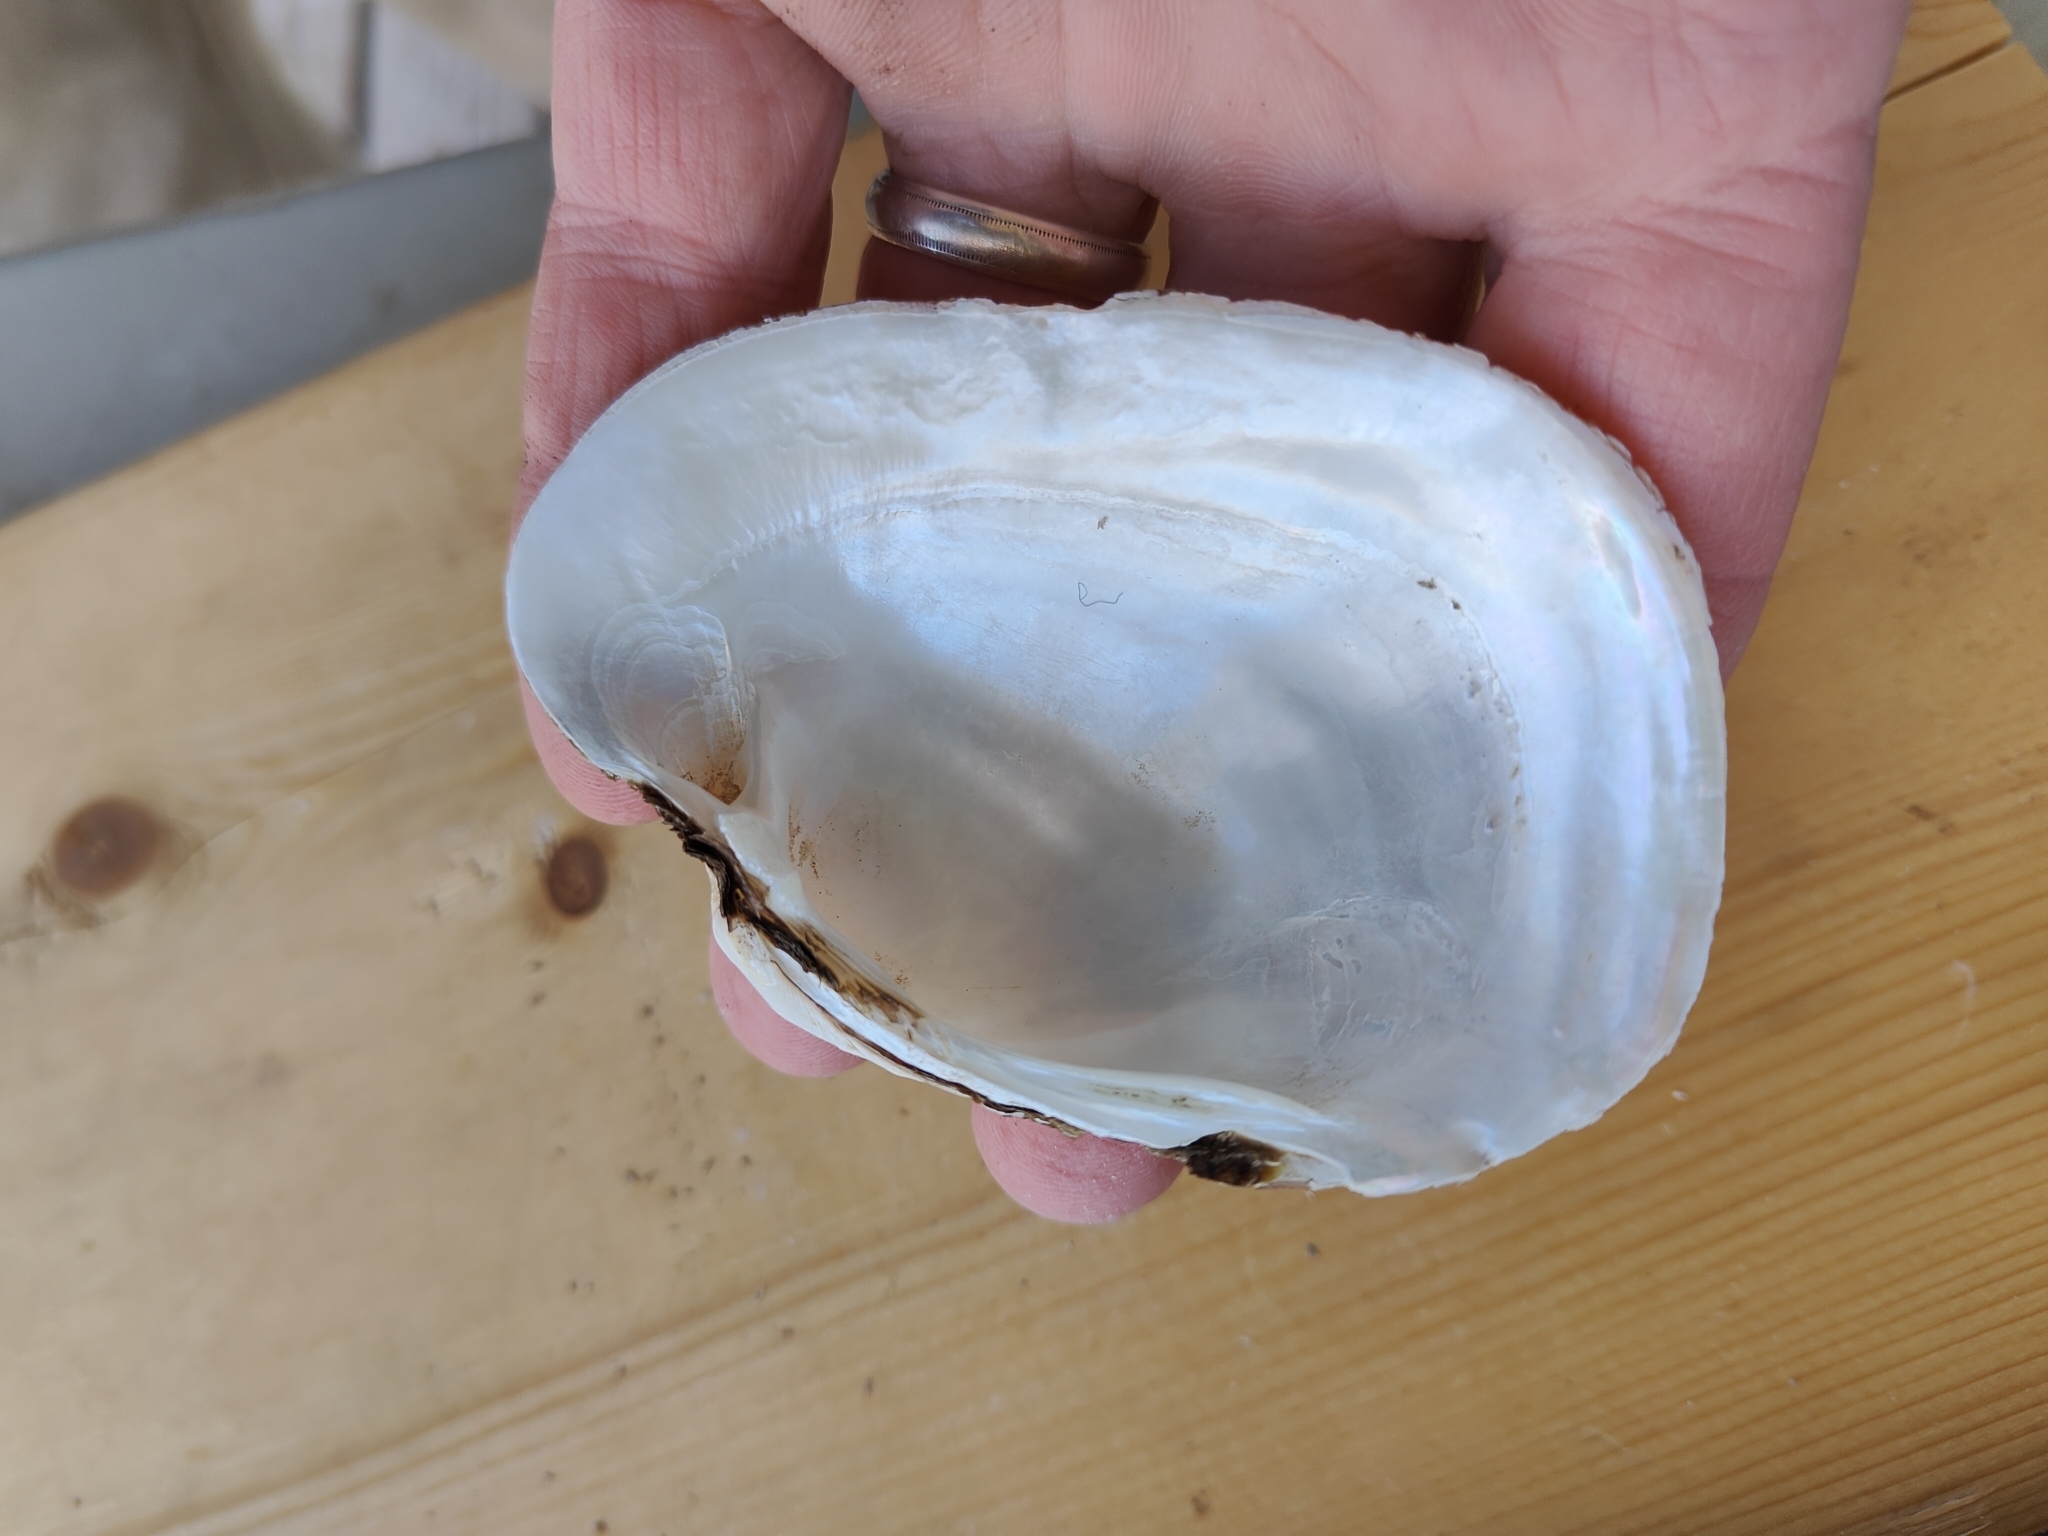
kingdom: Animalia
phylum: Mollusca
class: Bivalvia
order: Unionida
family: Unionidae
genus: Lampsilis
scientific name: Lampsilis cardium
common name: Plain pocketbook
